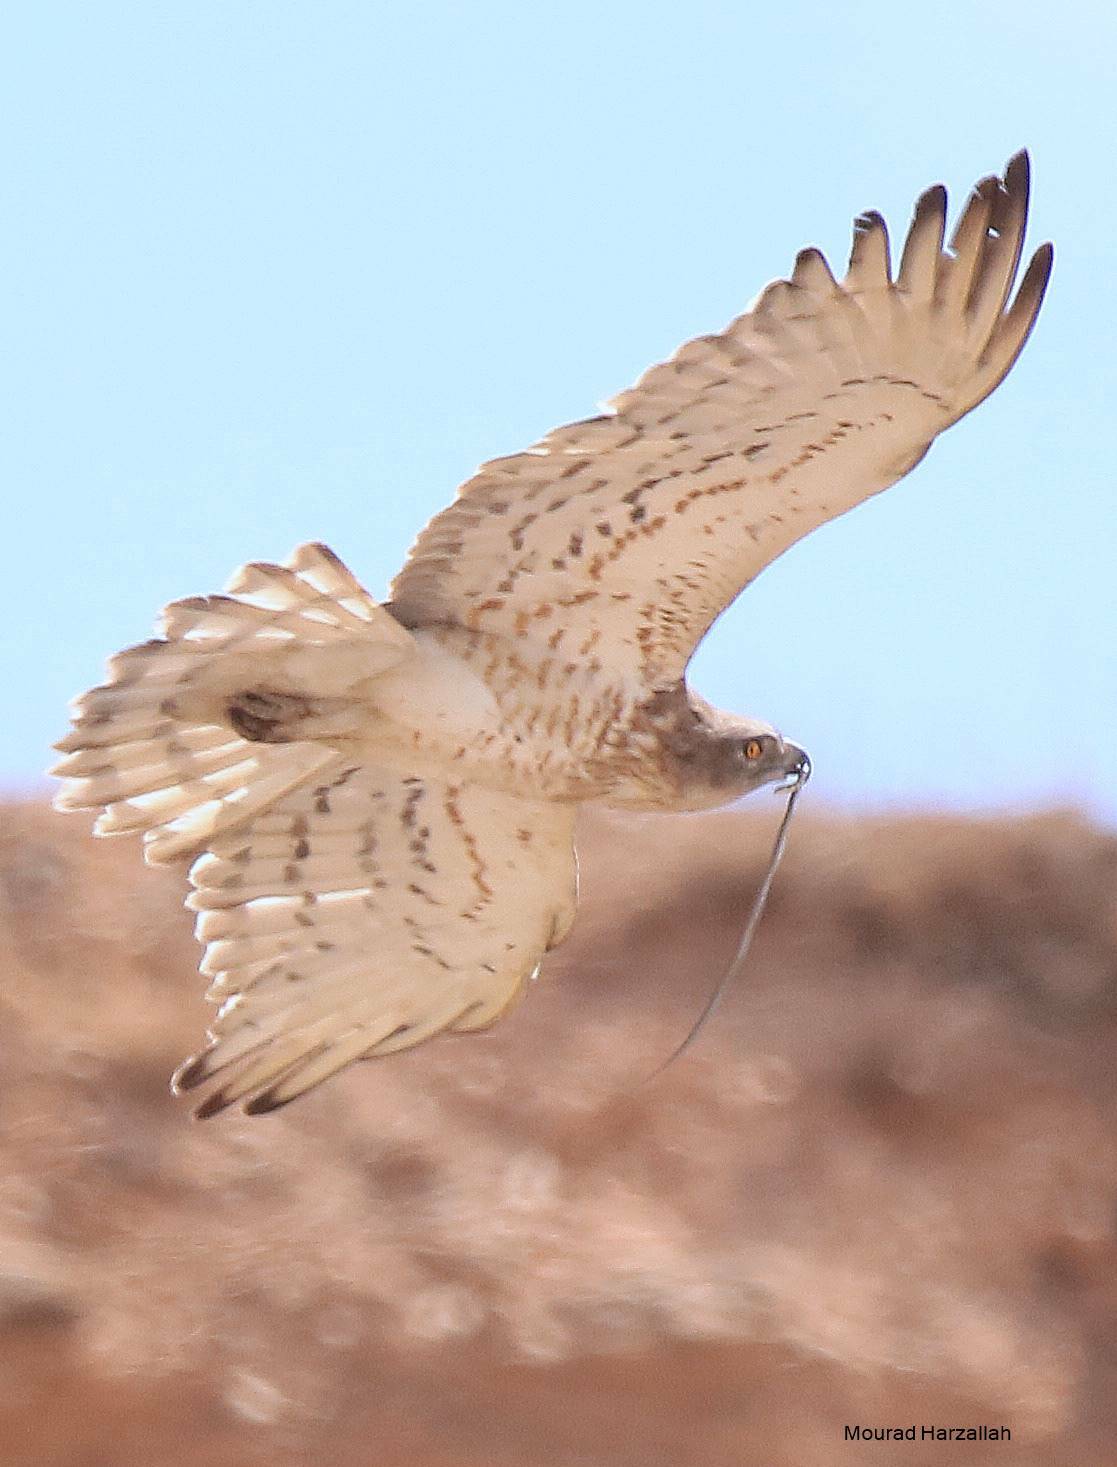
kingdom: Animalia
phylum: Chordata
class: Aves
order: Accipitriformes
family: Accipitridae
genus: Circaetus
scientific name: Circaetus gallicus
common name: Short-toed snake eagle
